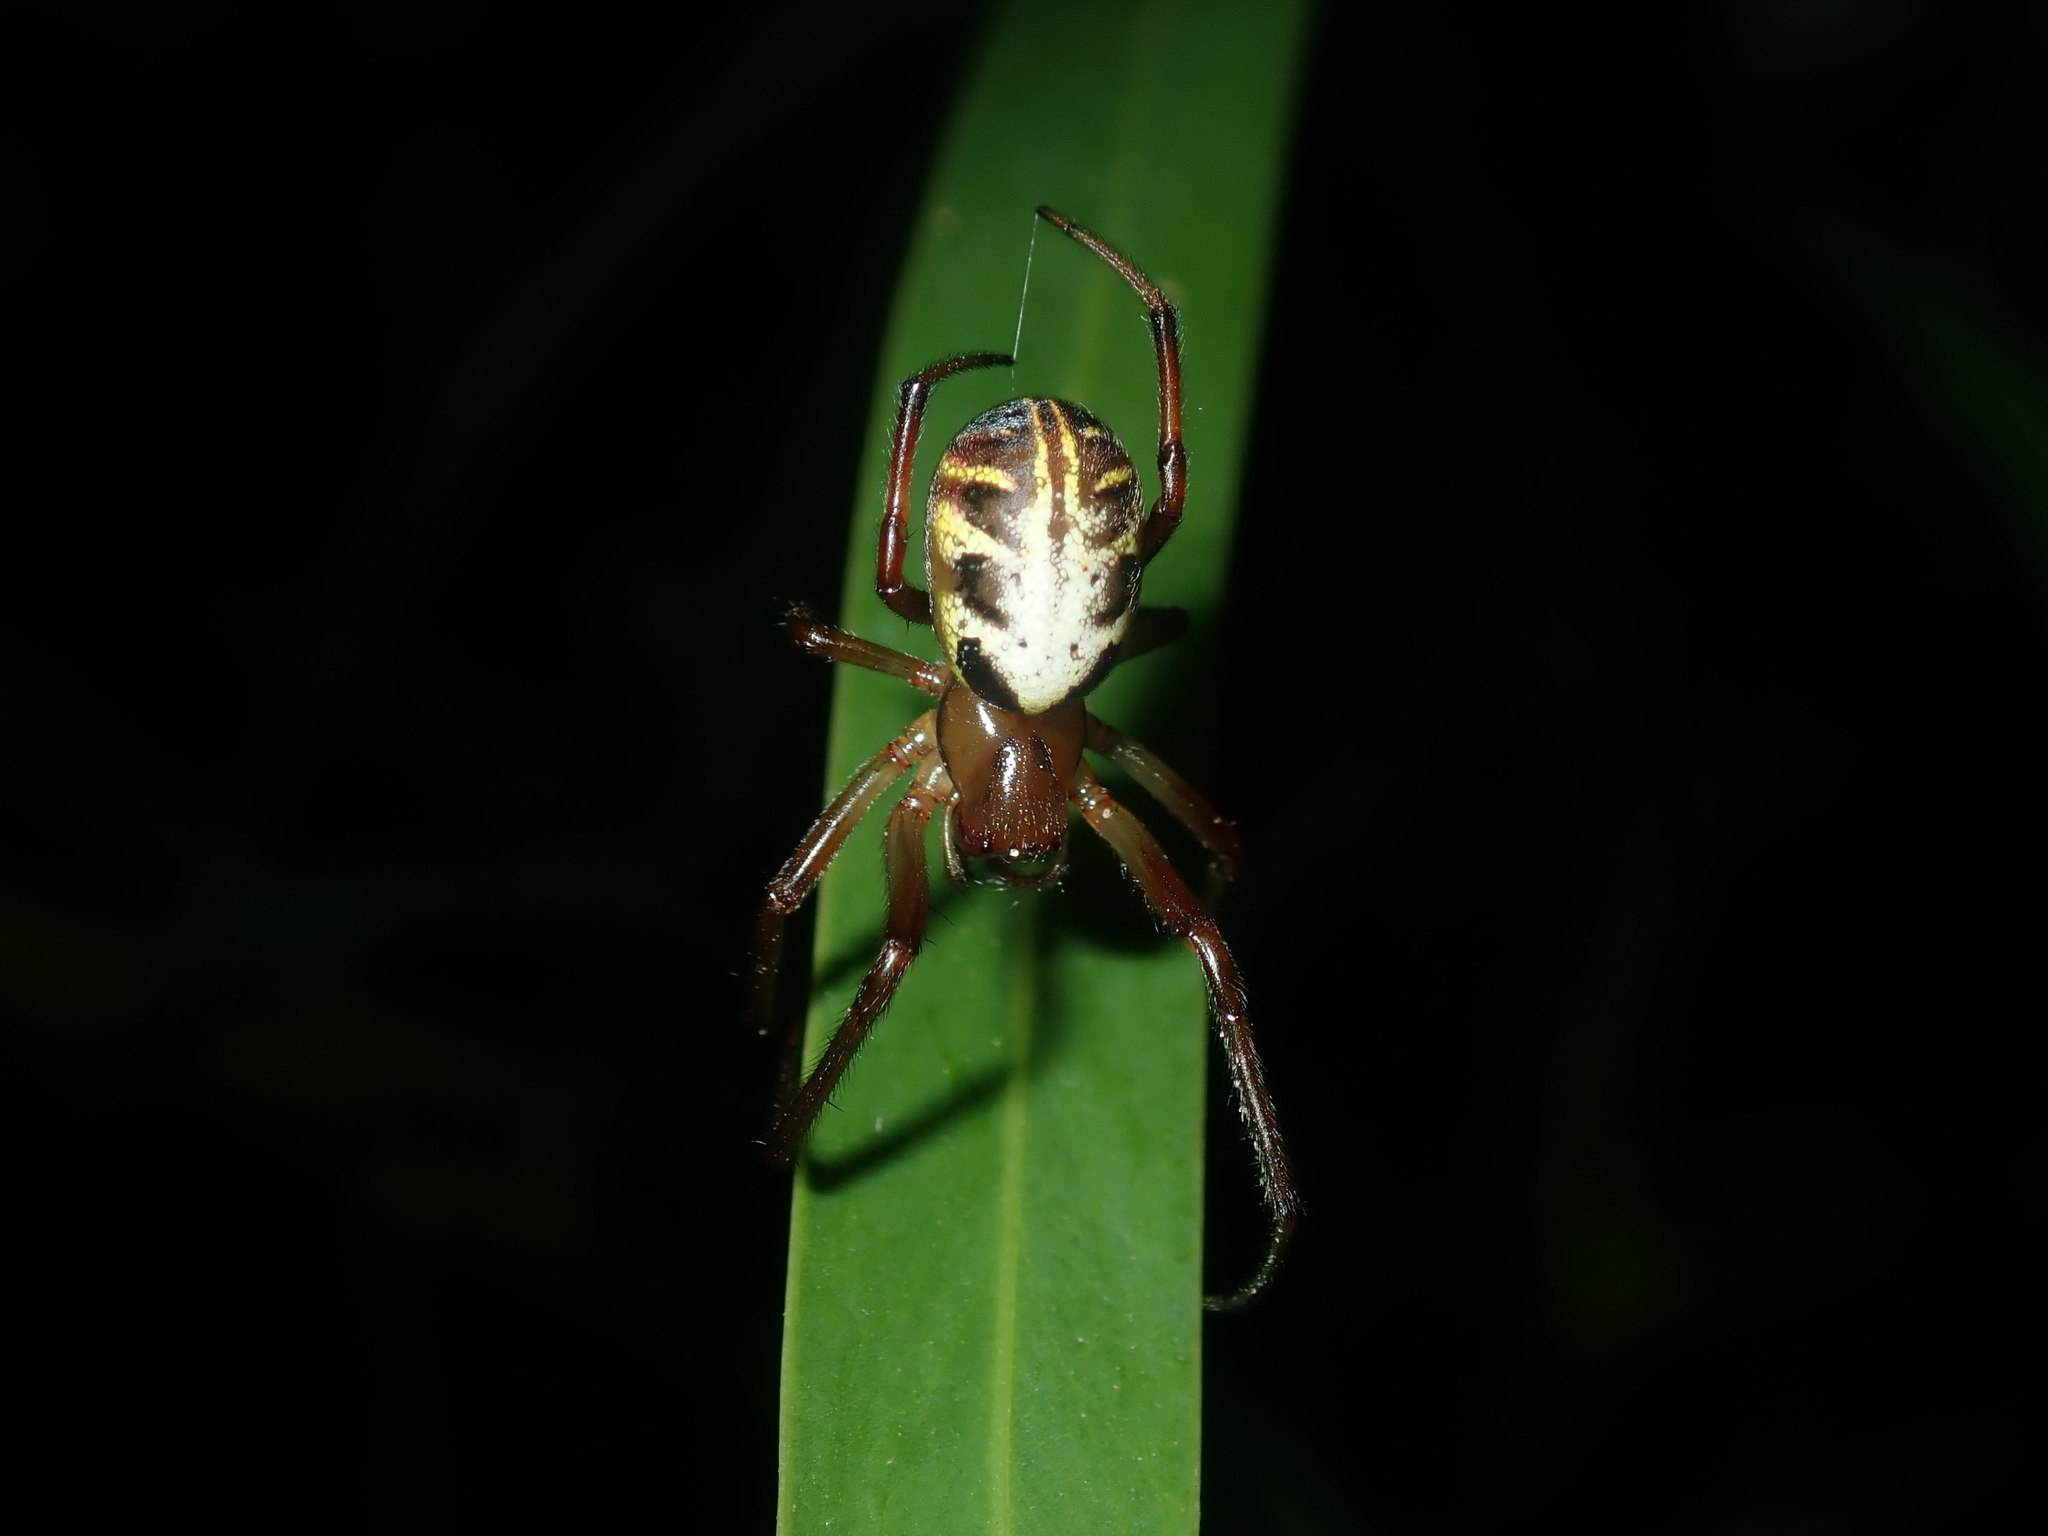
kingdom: Animalia
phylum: Arthropoda
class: Arachnida
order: Araneae
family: Araneidae
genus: Phonognatha
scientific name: Phonognatha graeffei
